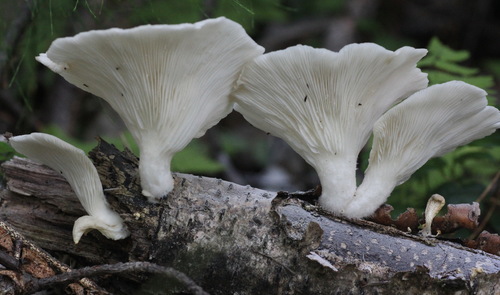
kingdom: Fungi
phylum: Basidiomycota
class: Agaricomycetes
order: Agaricales
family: Pleurotaceae
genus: Pleurotus
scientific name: Pleurotus pulmonarius
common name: Pale oyster
